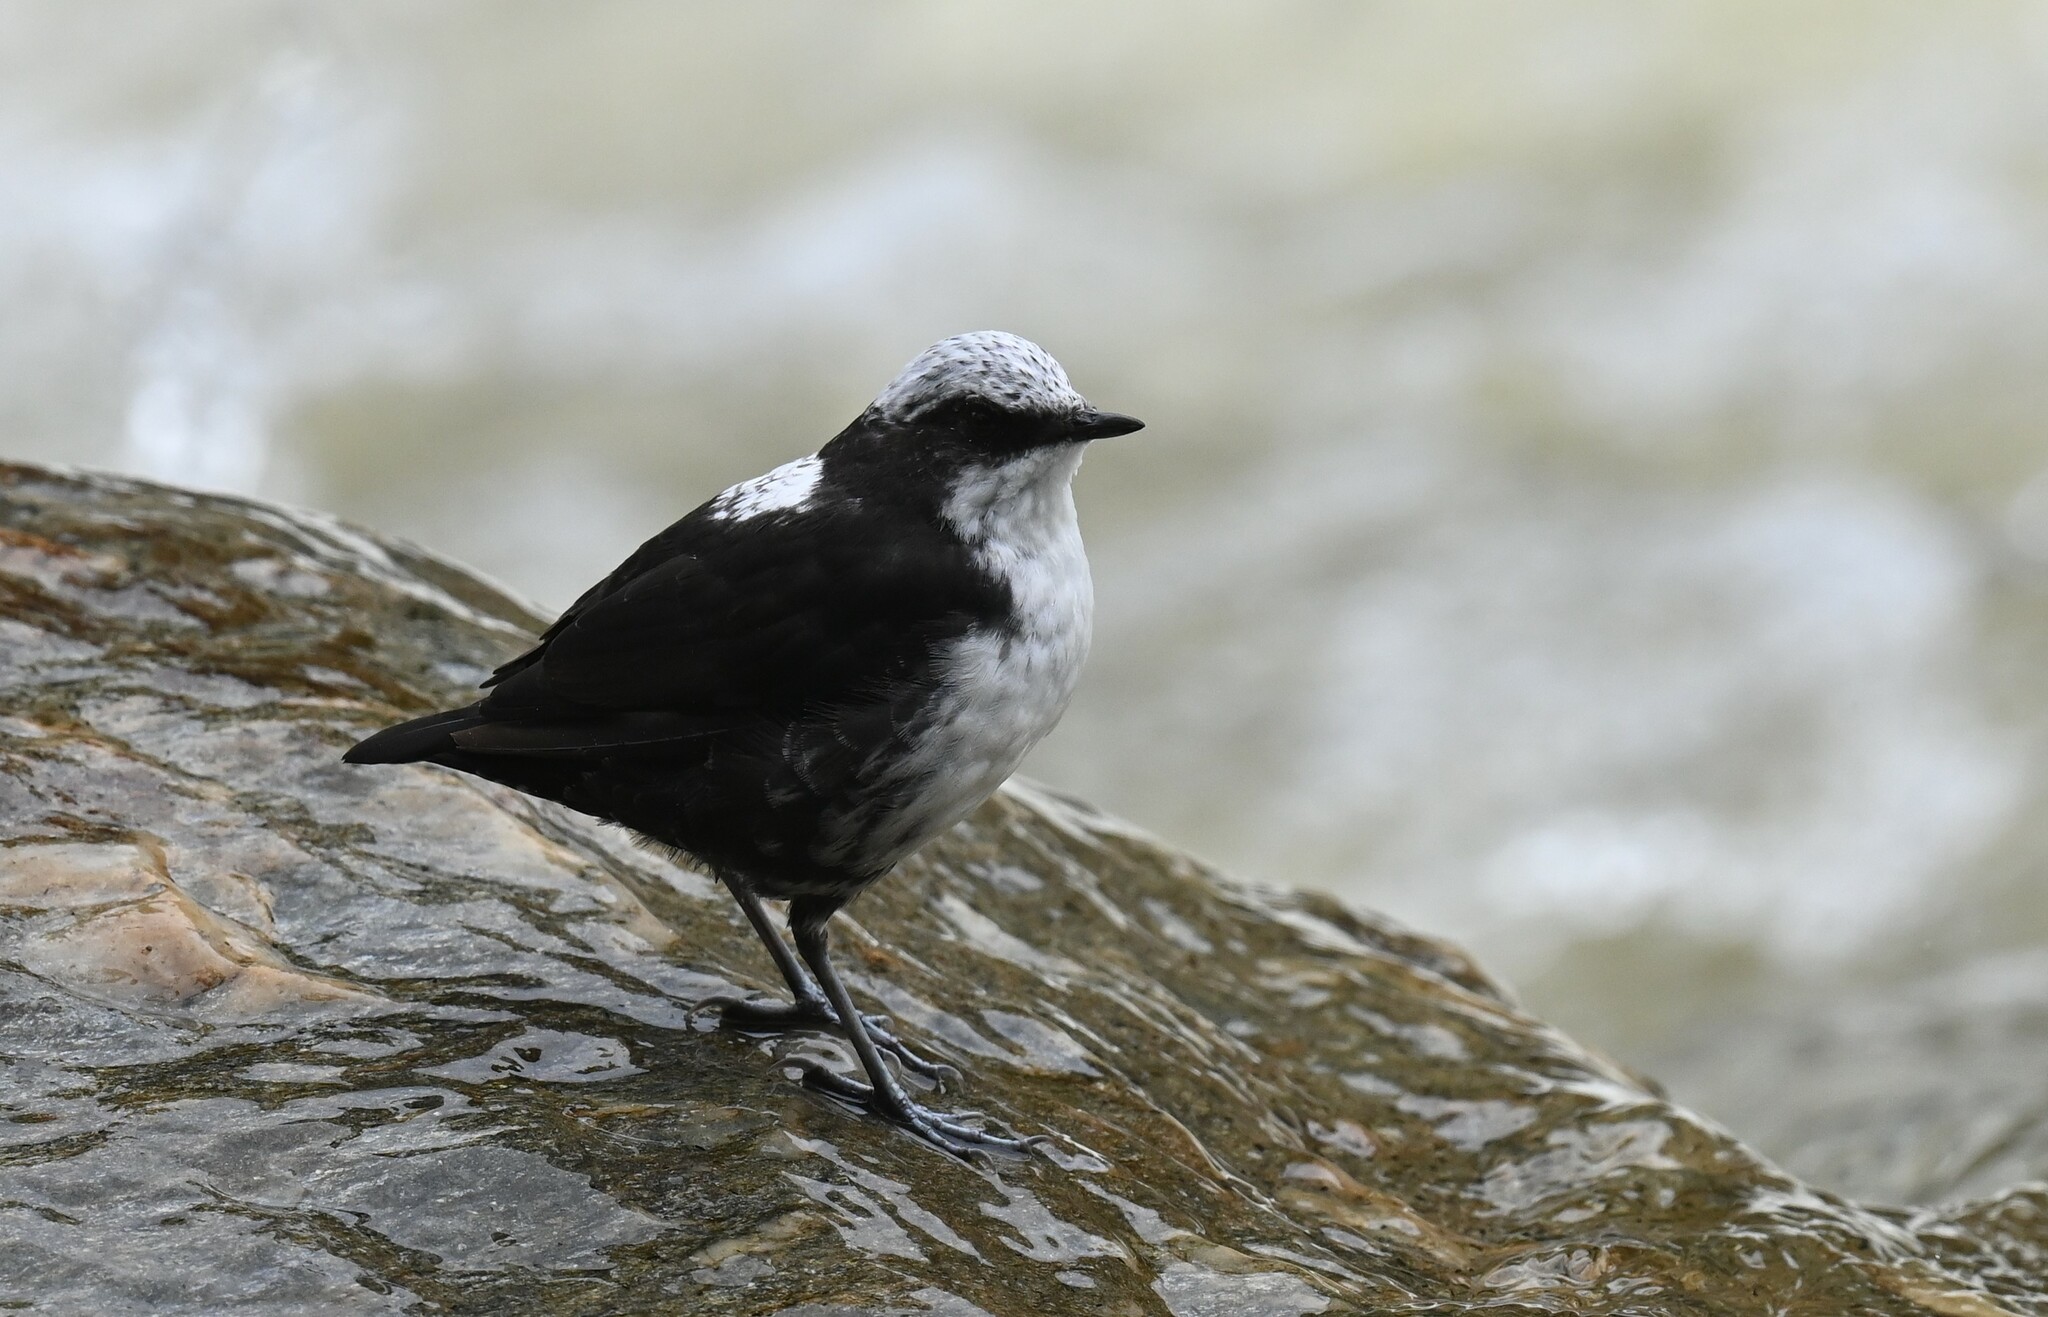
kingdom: Animalia
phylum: Chordata
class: Aves
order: Passeriformes
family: Cinclidae
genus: Cinclus
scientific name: Cinclus leucocephalus
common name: White-capped dipper
